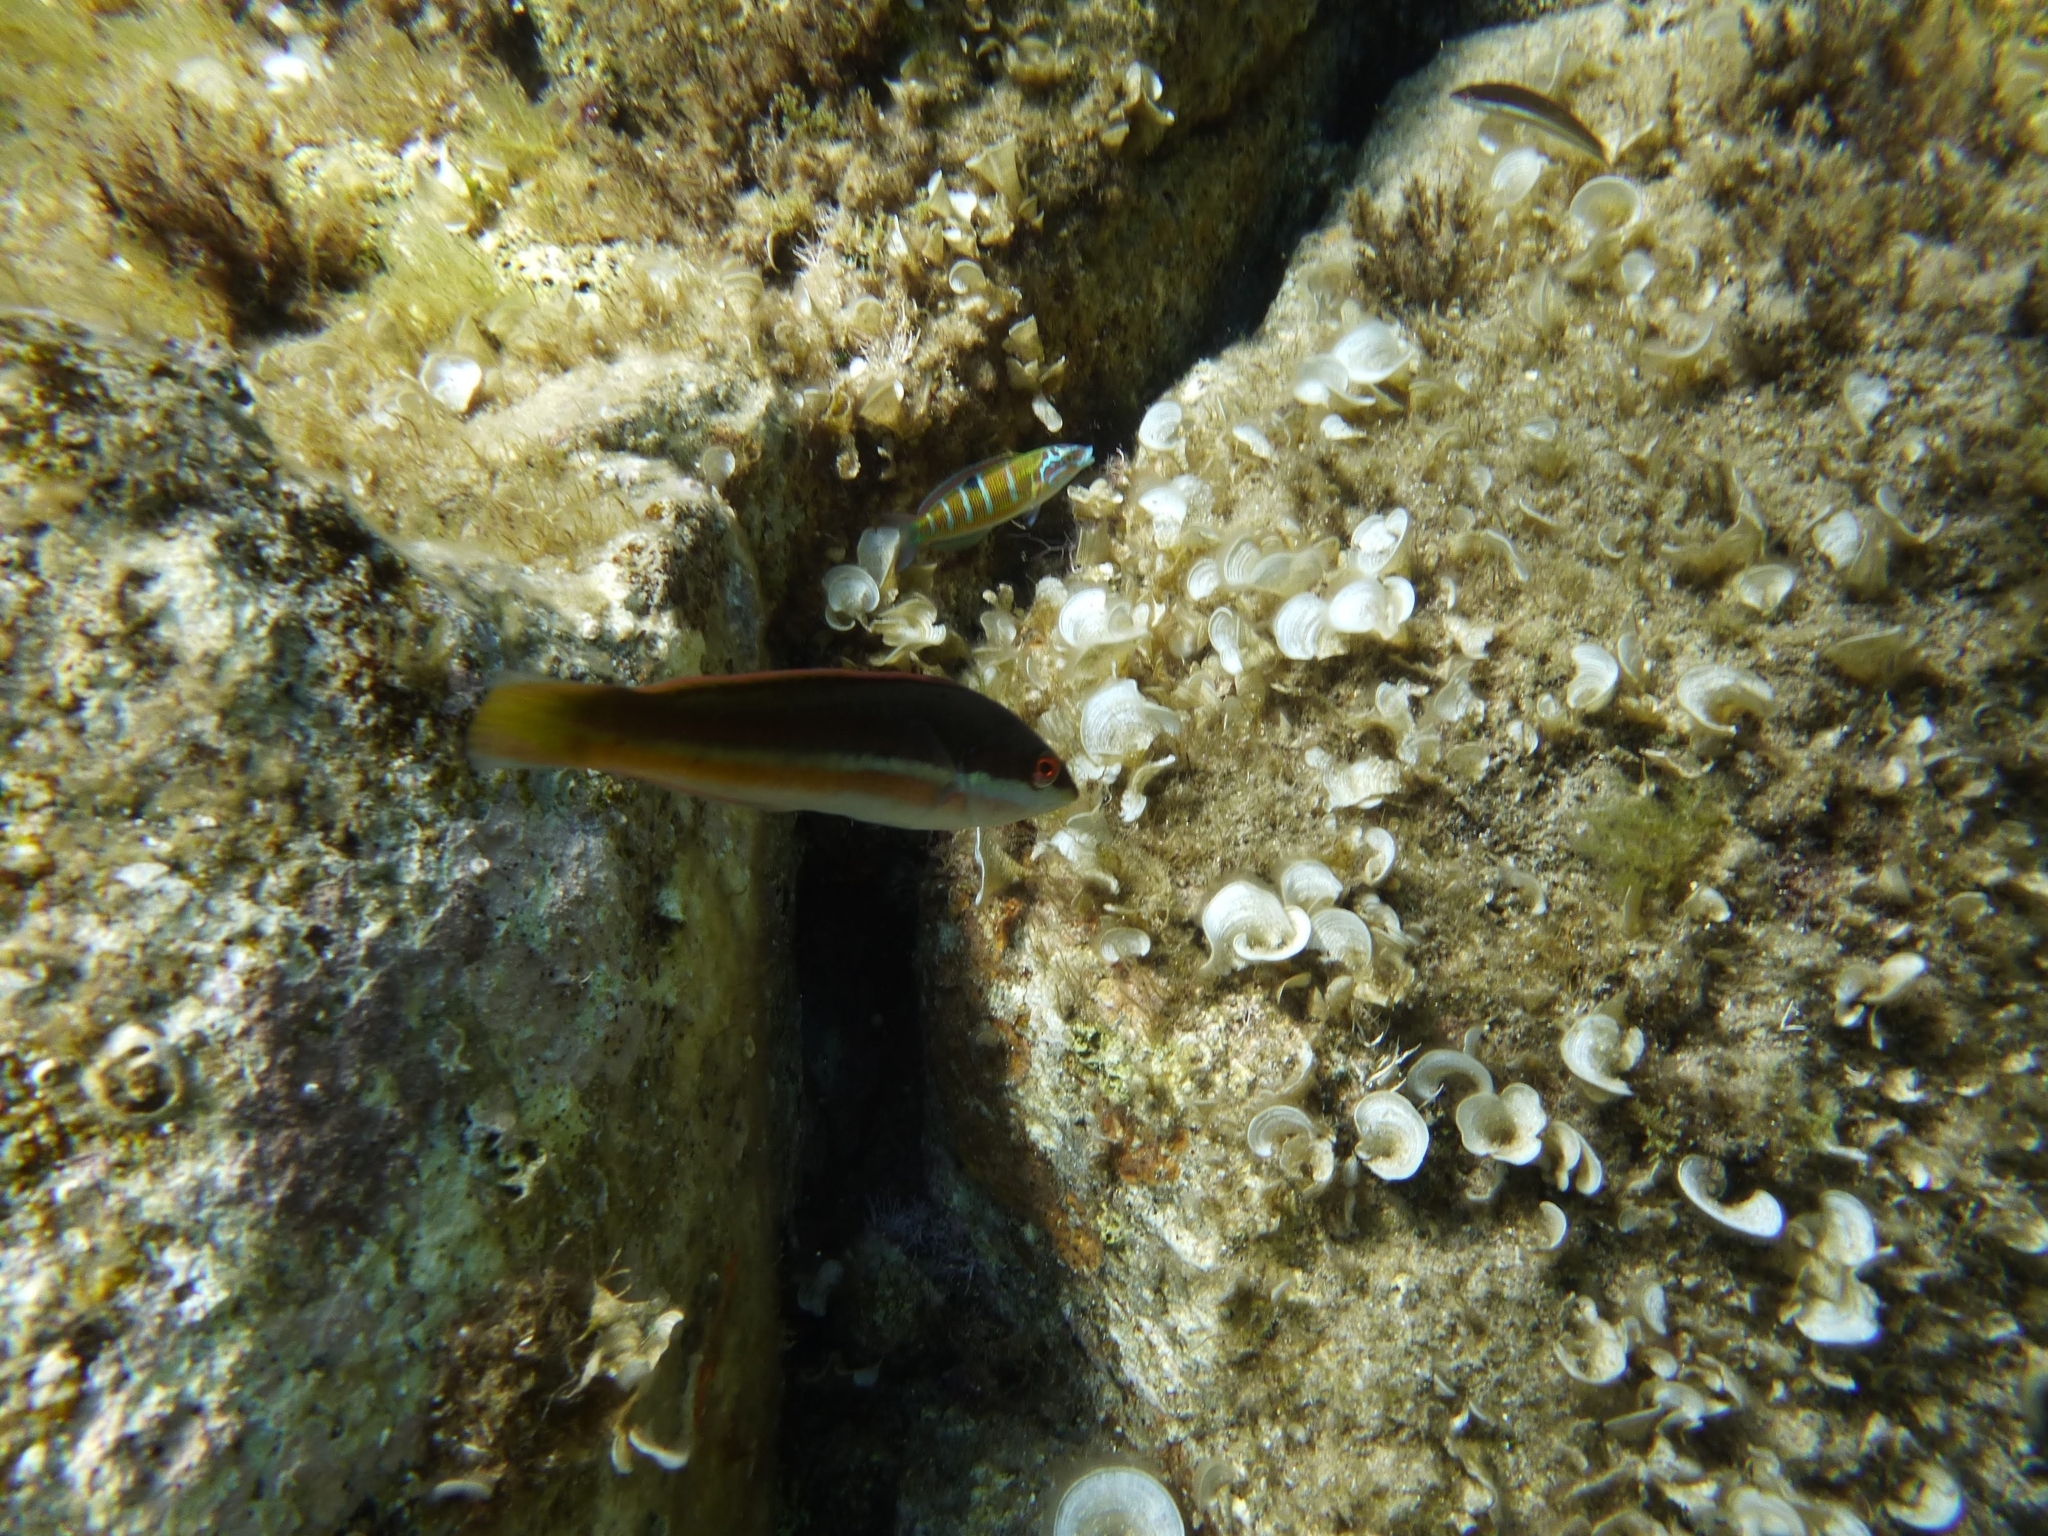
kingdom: Animalia
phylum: Chordata
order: Perciformes
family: Labridae
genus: Coris
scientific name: Coris julis
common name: Rainbow wrasse
